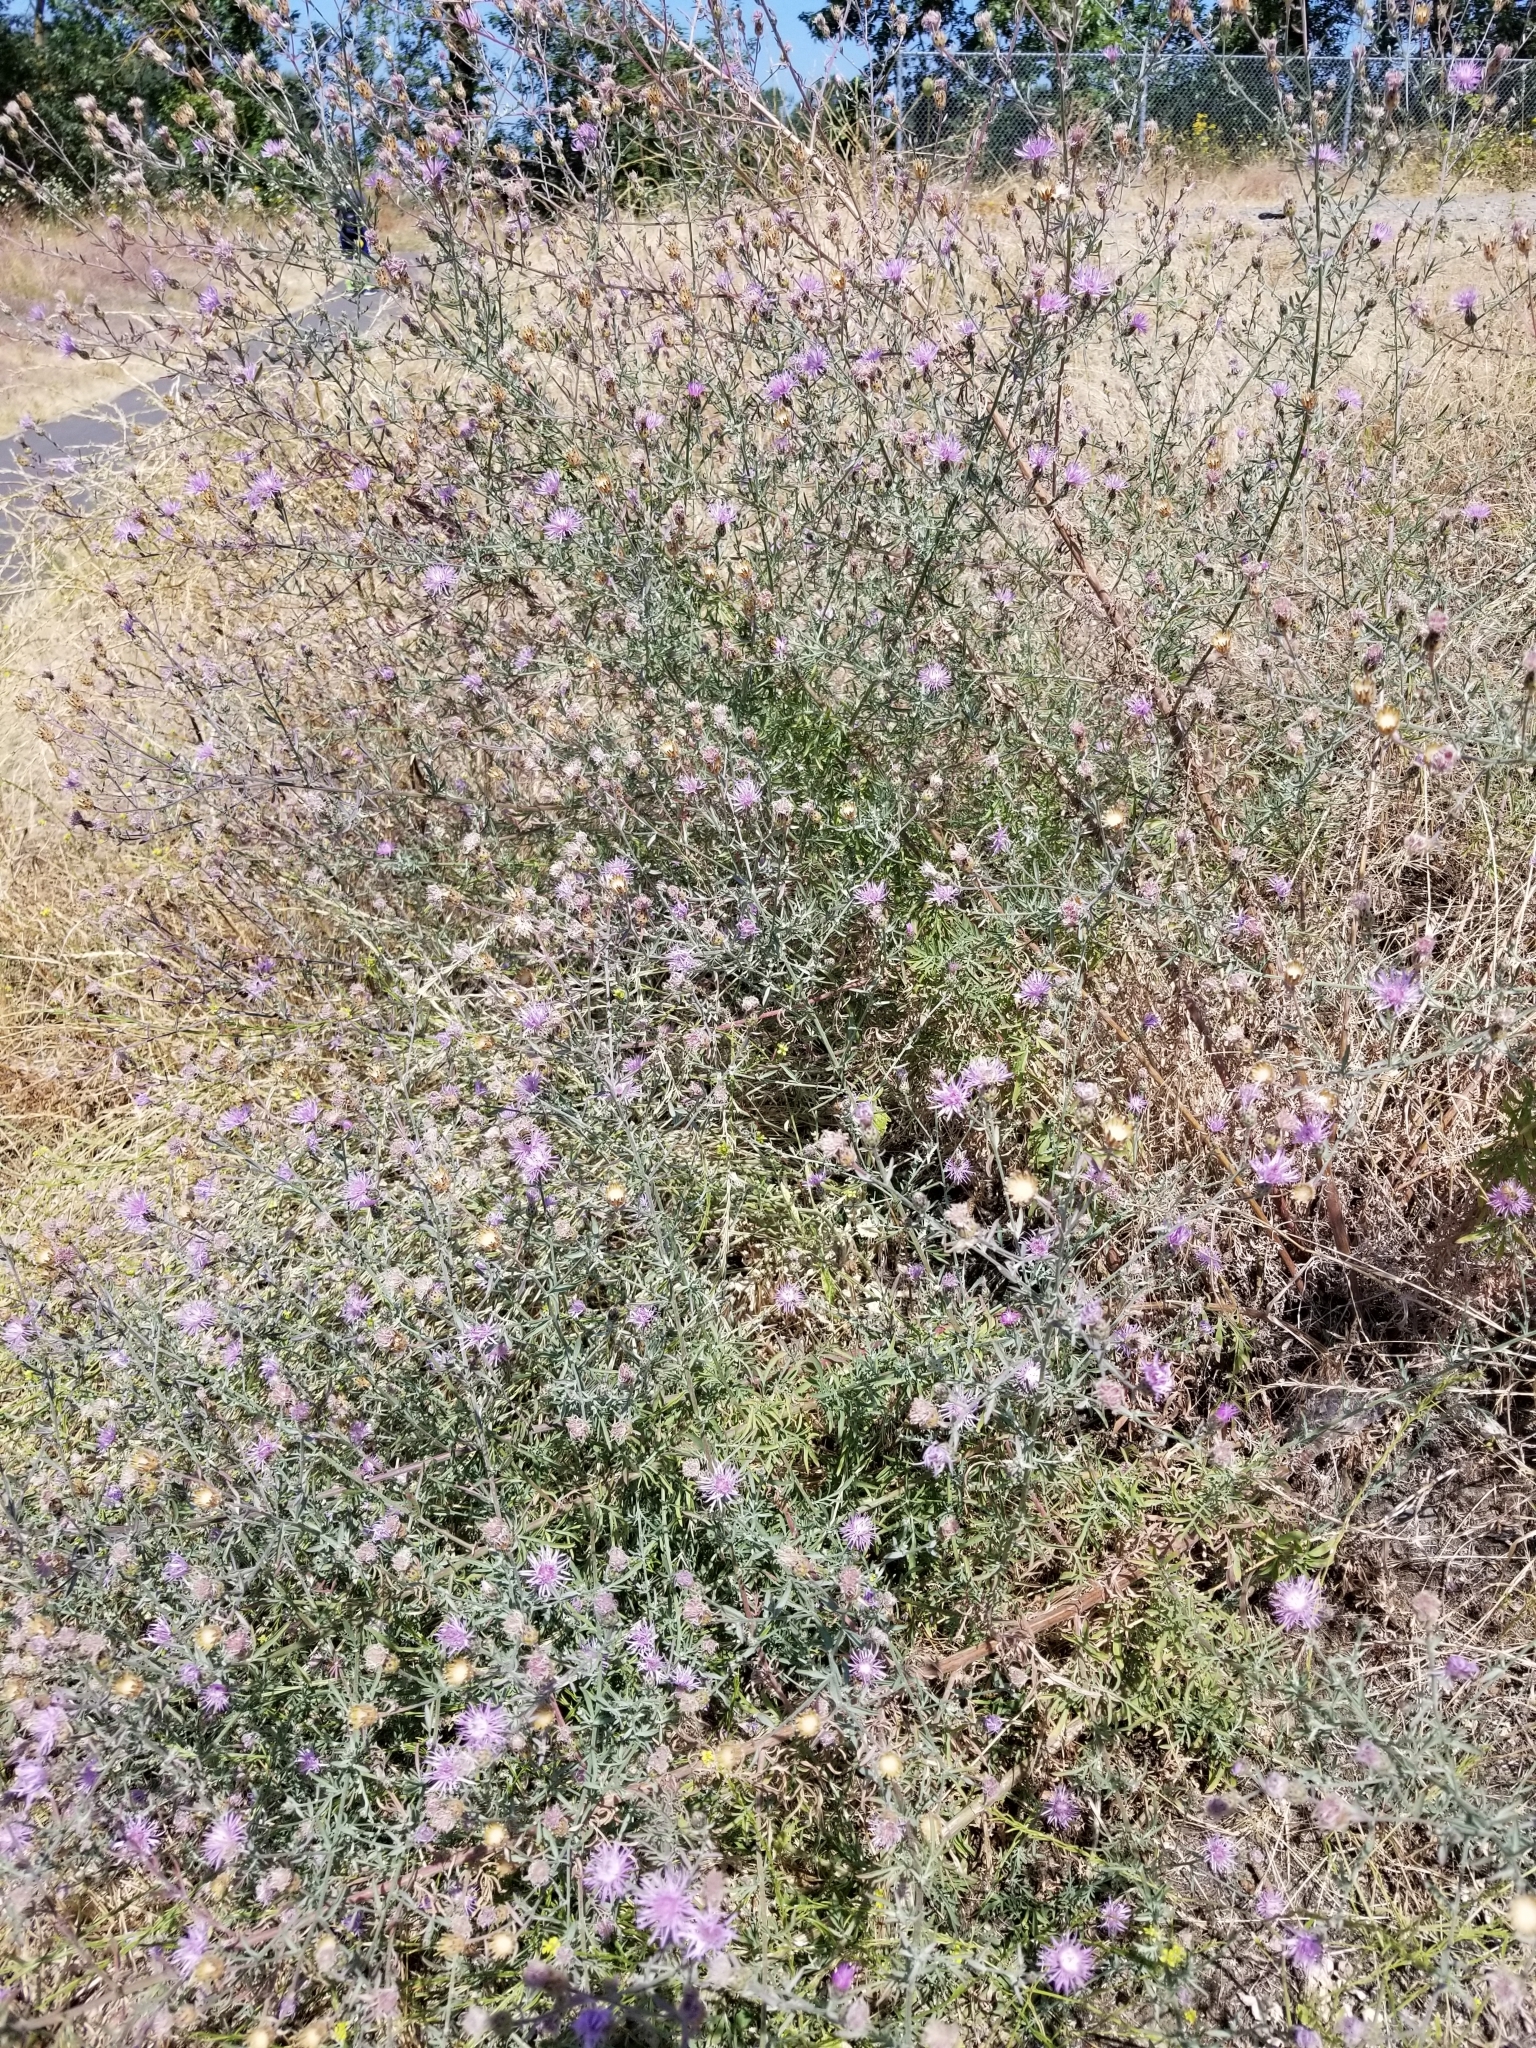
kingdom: Plantae
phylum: Tracheophyta
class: Magnoliopsida
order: Asterales
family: Asteraceae
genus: Centaurea
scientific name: Centaurea stoebe
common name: Spotted knapweed
